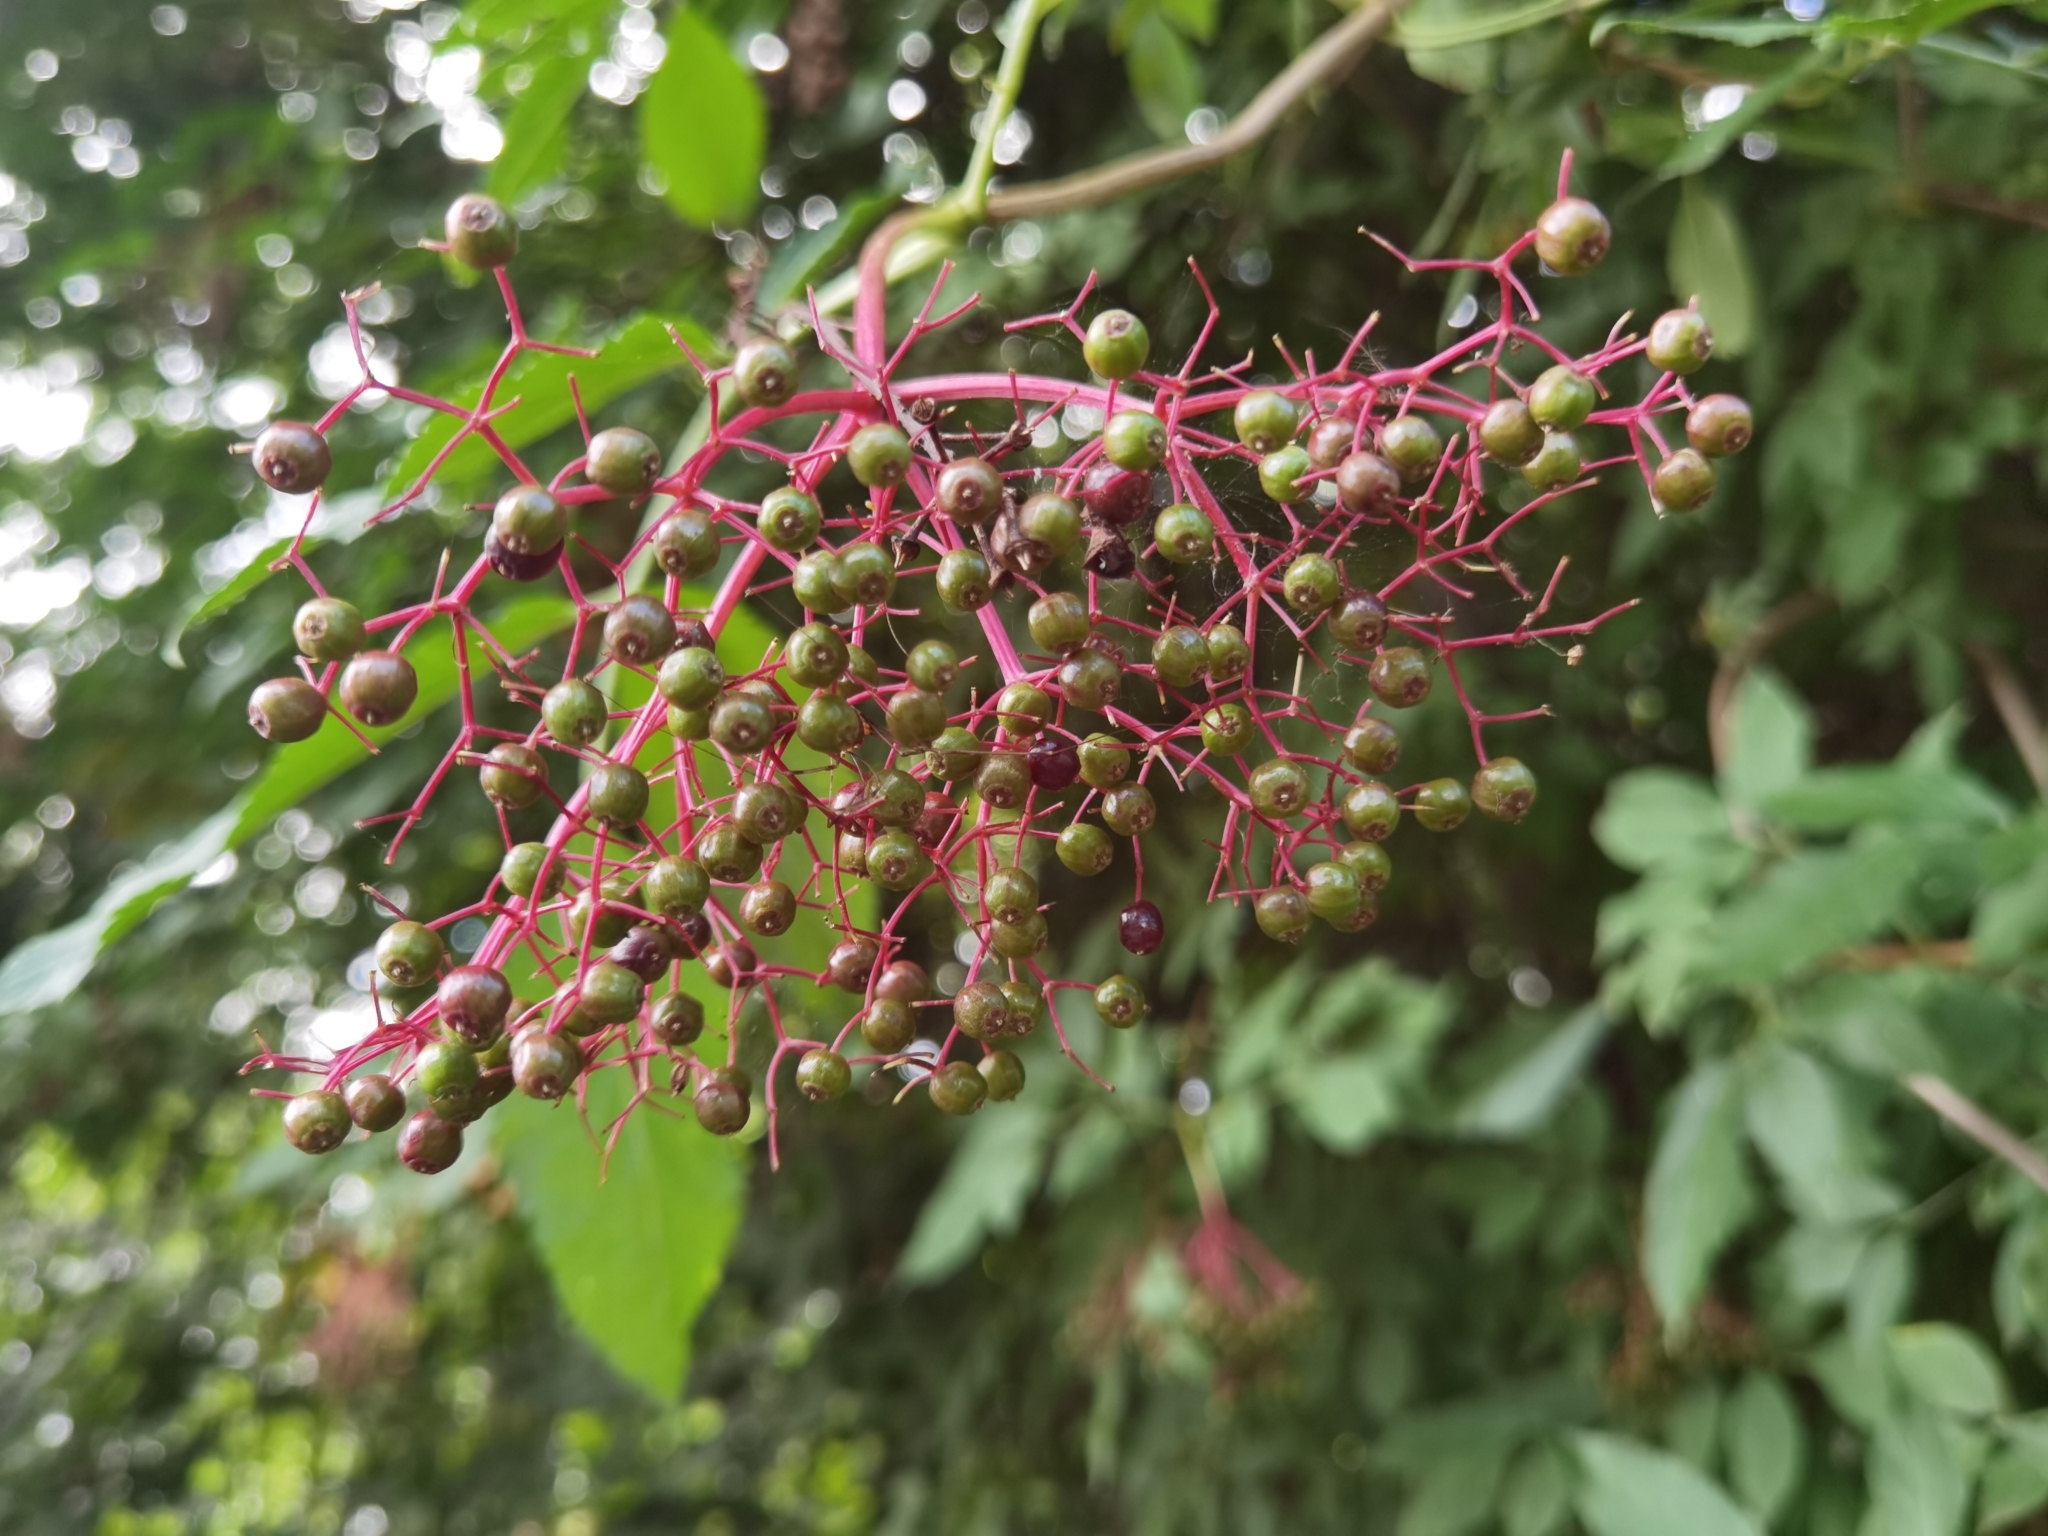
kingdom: Plantae
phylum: Tracheophyta
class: Magnoliopsida
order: Dipsacales
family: Viburnaceae
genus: Sambucus
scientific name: Sambucus nigra
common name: Elder
